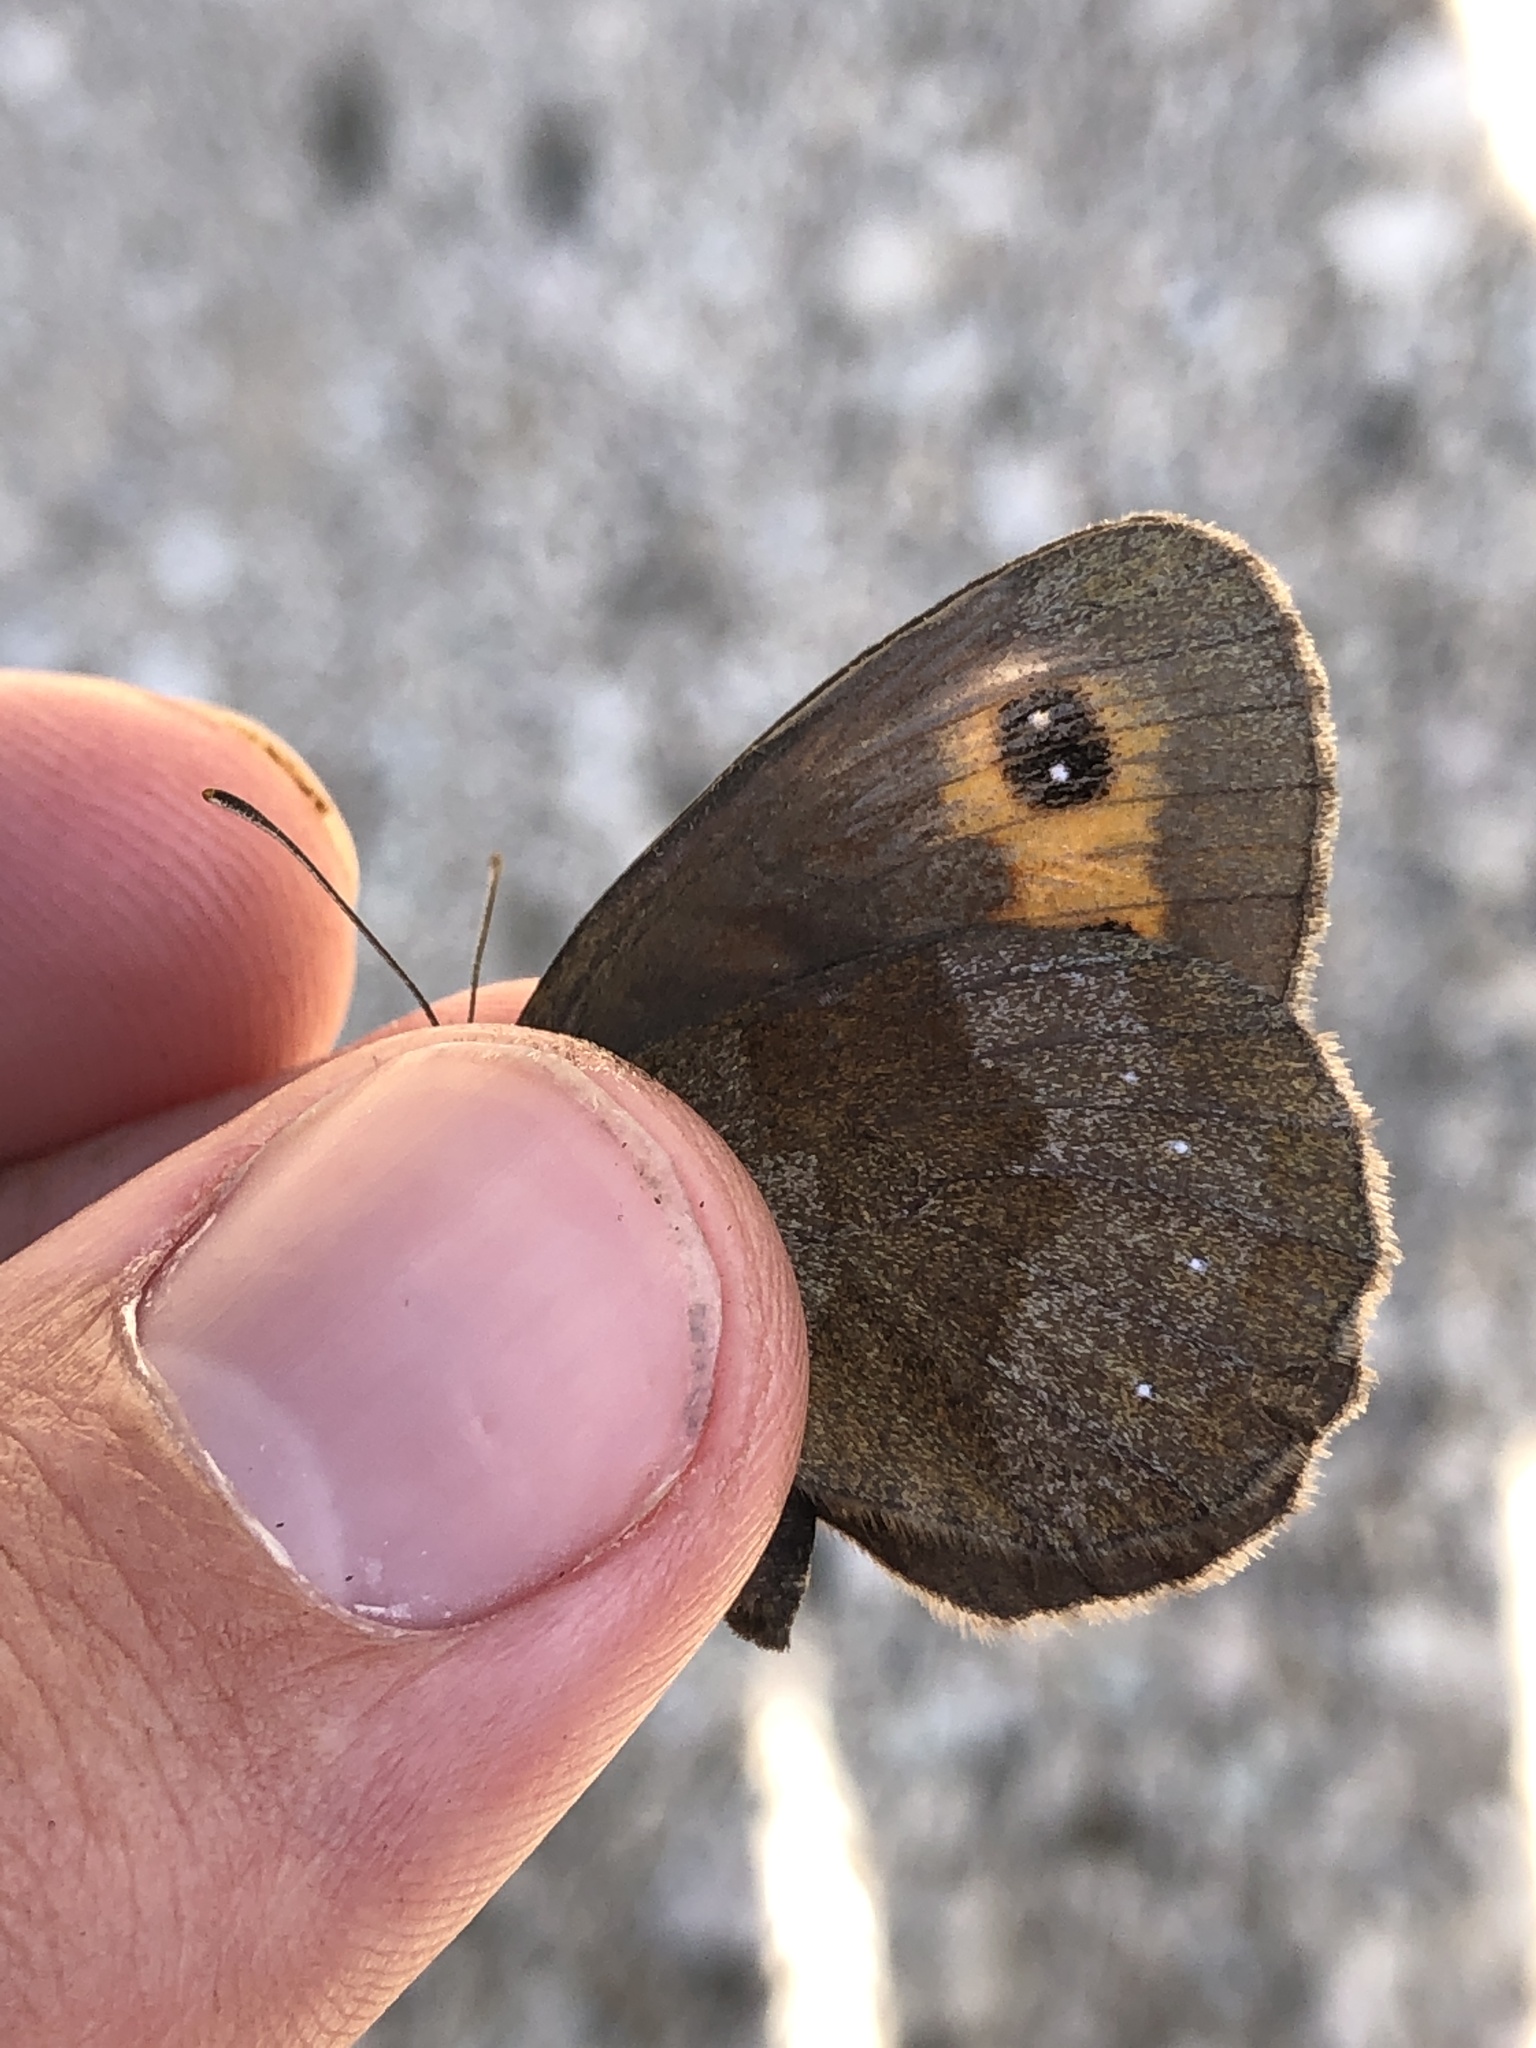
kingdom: Animalia
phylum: Arthropoda
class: Insecta
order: Lepidoptera
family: Nymphalidae
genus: Erebia
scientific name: Erebia aethiops
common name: Scotch argus
